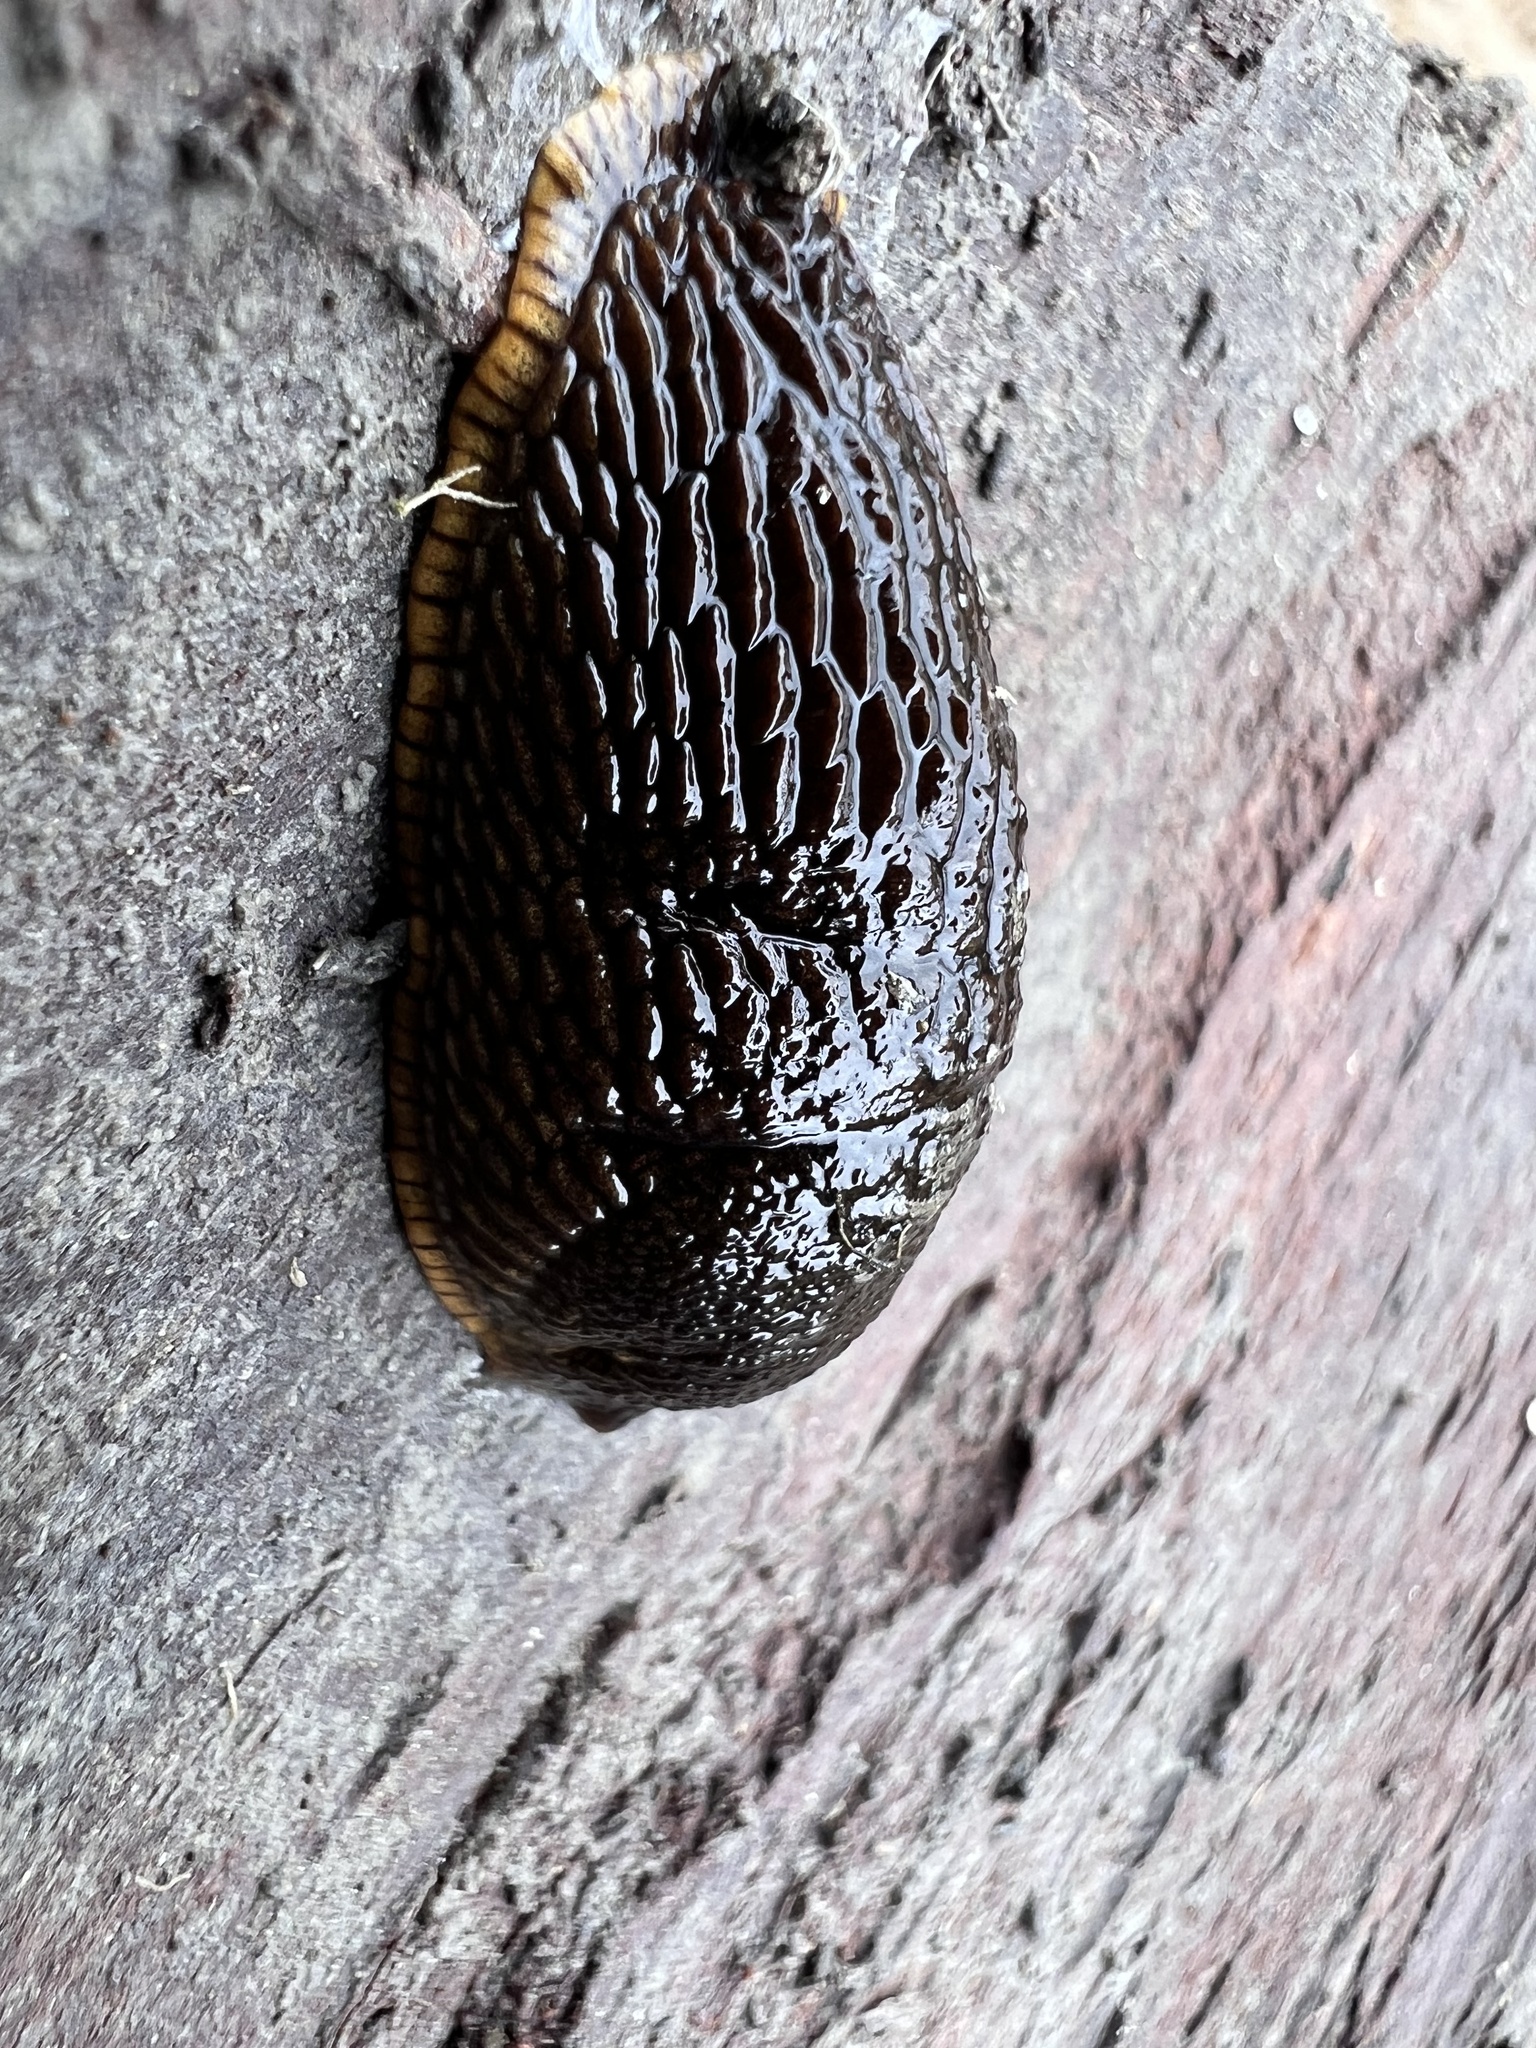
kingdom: Animalia
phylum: Mollusca
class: Gastropoda
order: Stylommatophora
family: Arionidae
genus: Arion
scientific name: Arion
